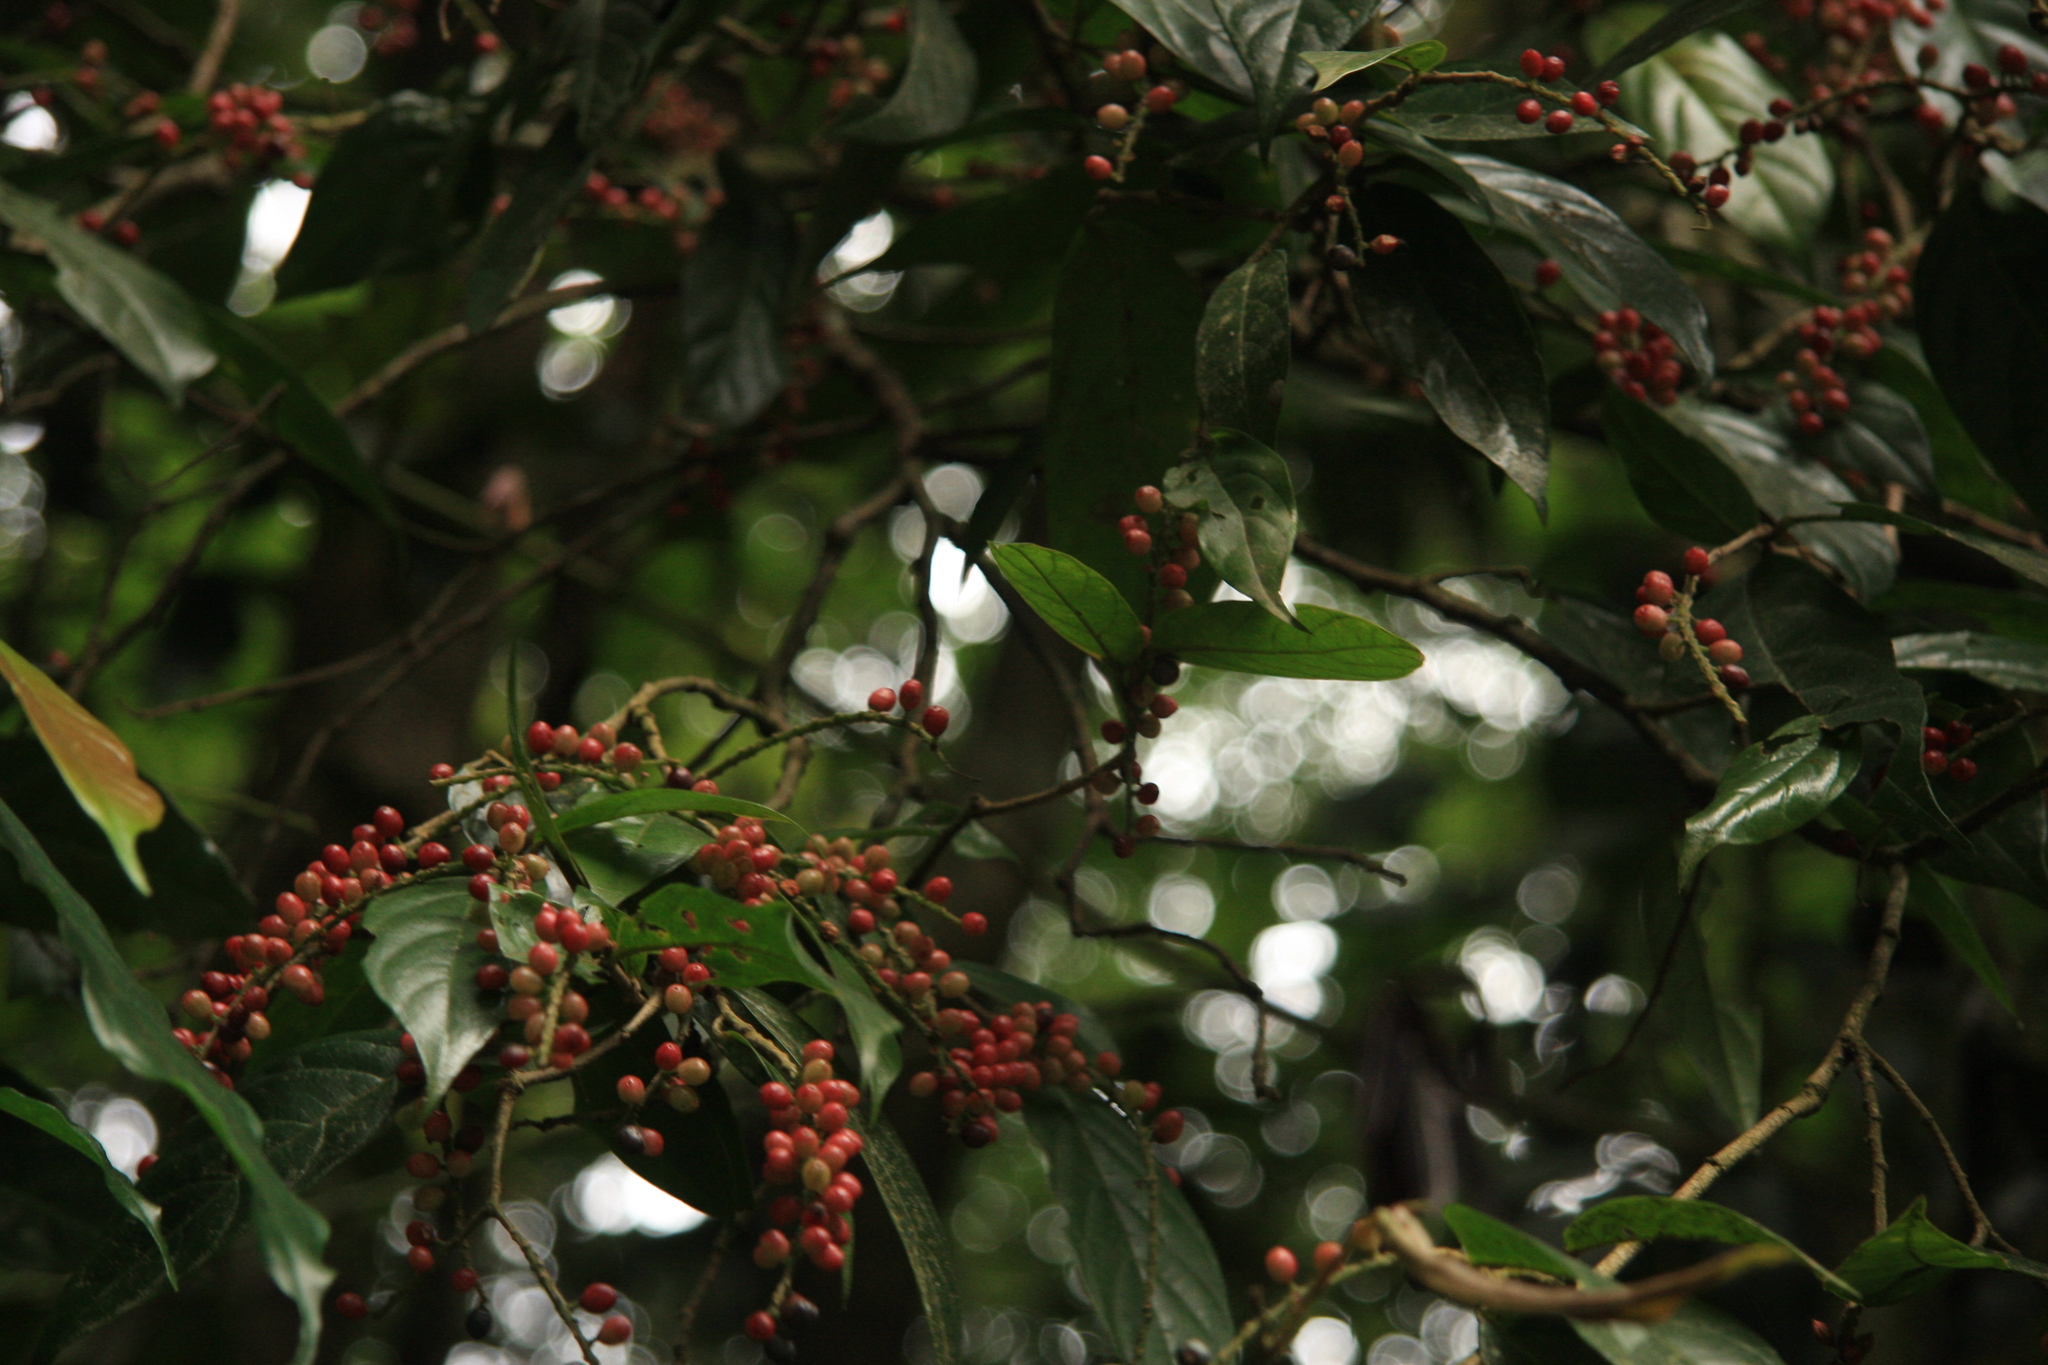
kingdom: Plantae
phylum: Tracheophyta
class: Magnoliopsida
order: Malpighiales
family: Phyllanthaceae
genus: Antidesma
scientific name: Antidesma montanum
